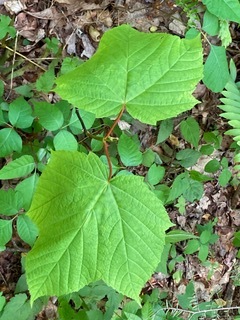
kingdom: Plantae
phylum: Tracheophyta
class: Magnoliopsida
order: Sapindales
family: Sapindaceae
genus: Acer
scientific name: Acer pensylvanicum
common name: Moosewood
